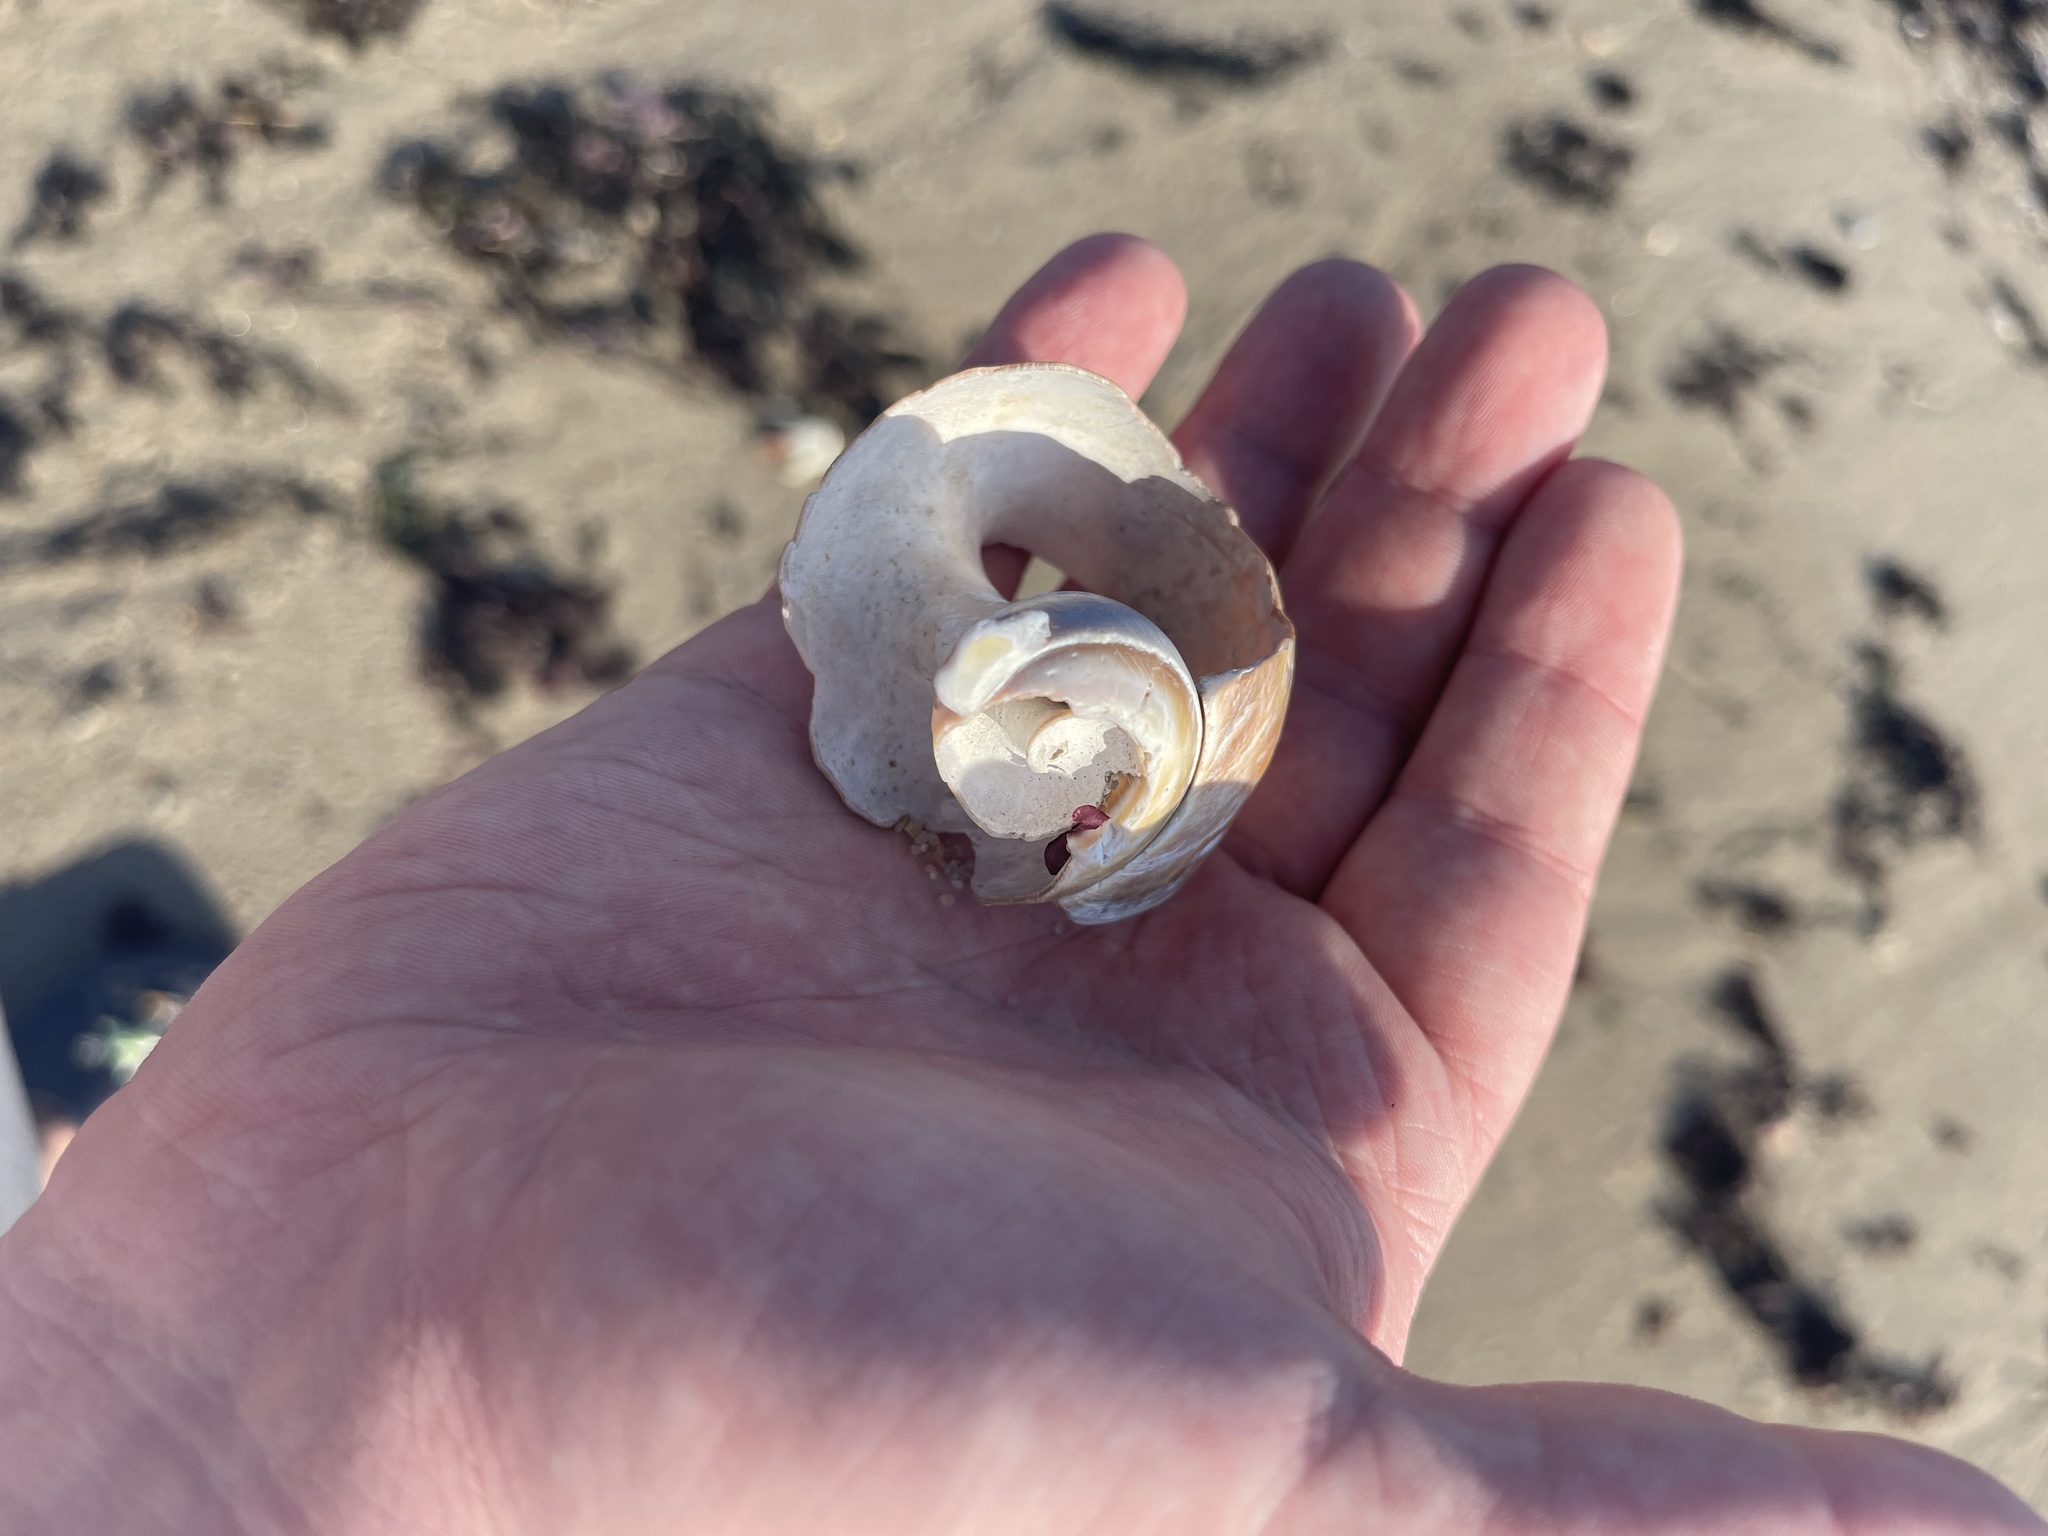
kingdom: Animalia
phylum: Mollusca
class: Gastropoda
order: Littorinimorpha
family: Naticidae
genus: Euspira
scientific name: Euspira heros
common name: Common northern moonsnail
